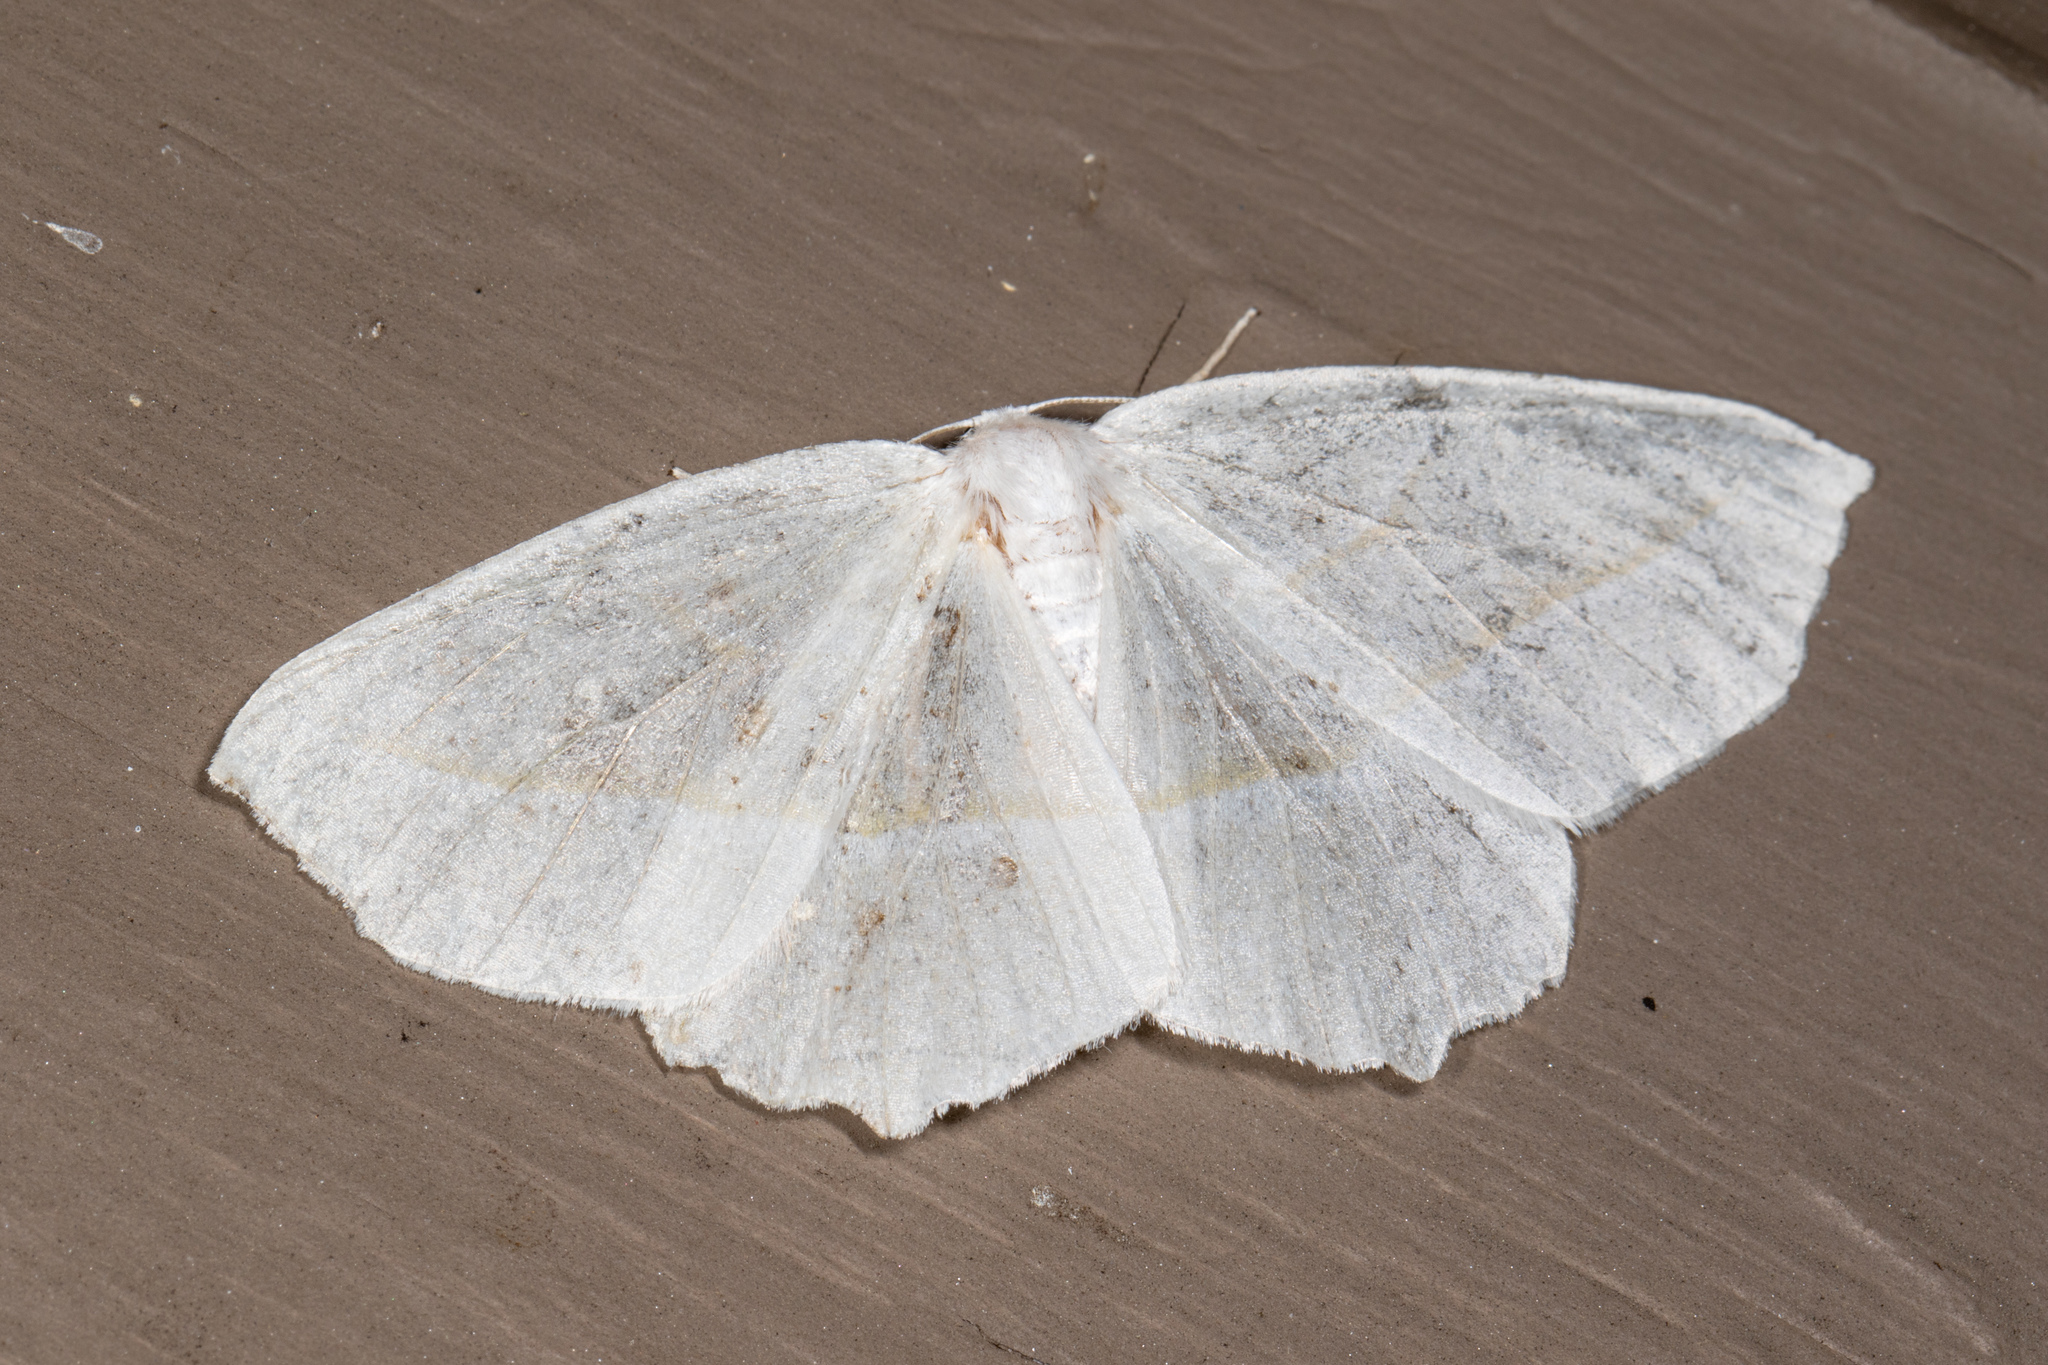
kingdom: Animalia
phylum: Arthropoda
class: Insecta
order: Lepidoptera
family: Geometridae
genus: Campaea
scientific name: Campaea perlata
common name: Fringed looper
